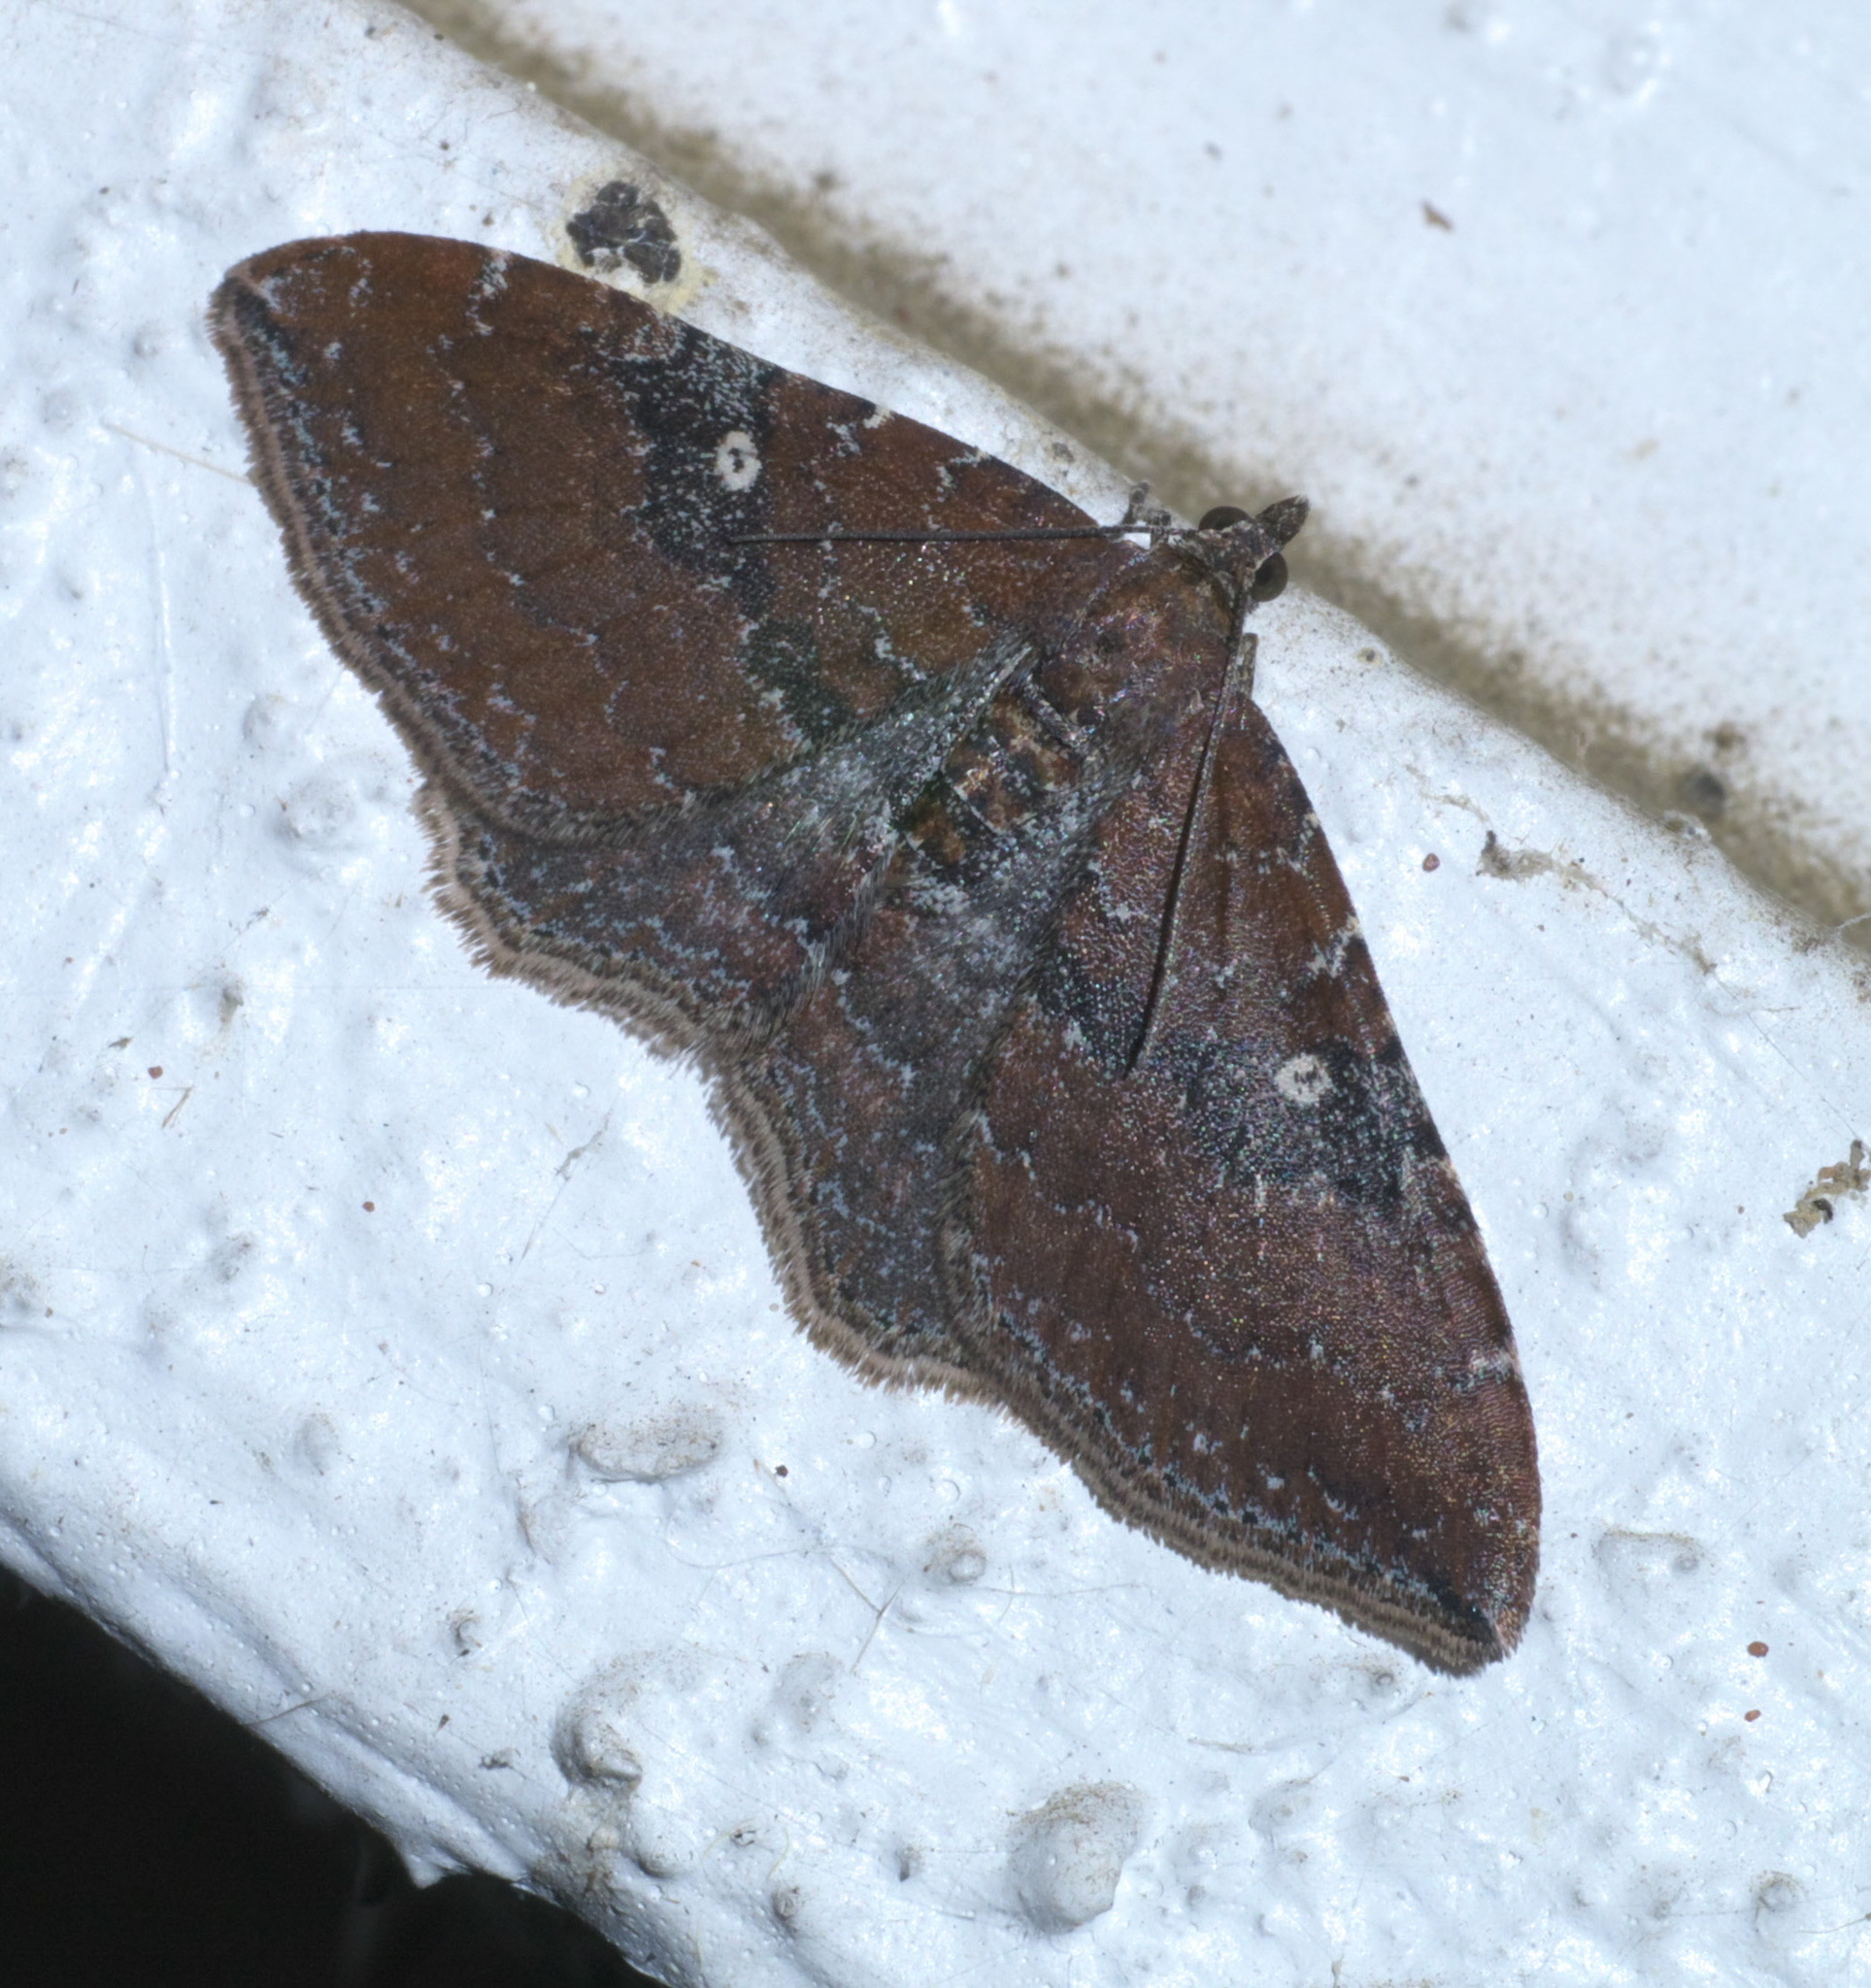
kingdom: Animalia
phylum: Arthropoda
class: Insecta
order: Lepidoptera
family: Geometridae
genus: Orthonama
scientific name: Orthonama obstipata
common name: The gem
